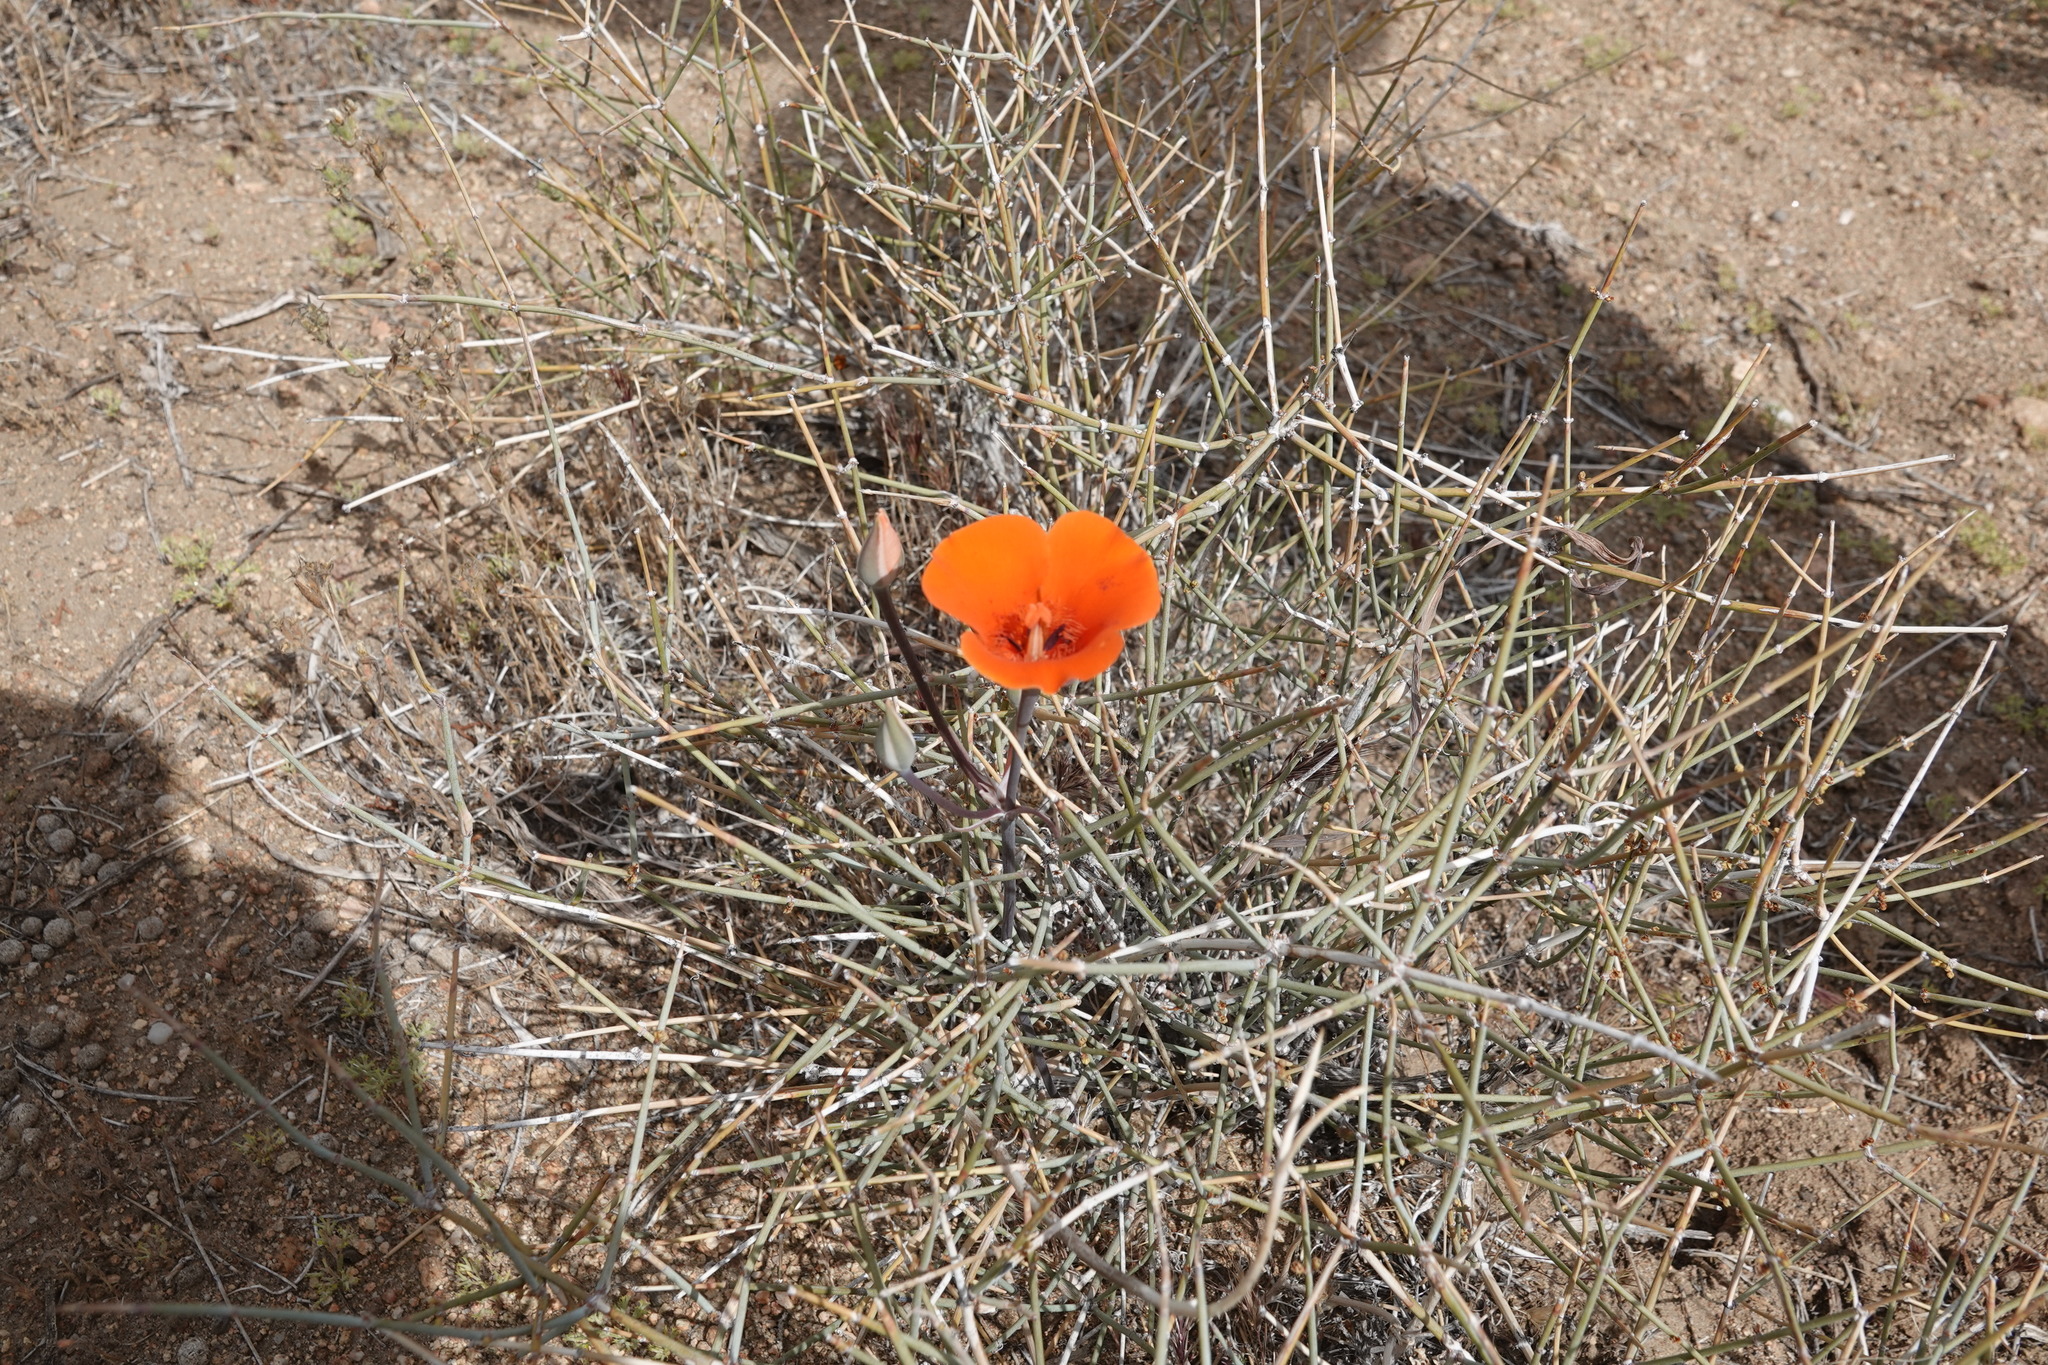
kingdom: Plantae
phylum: Tracheophyta
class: Liliopsida
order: Liliales
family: Liliaceae
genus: Calochortus
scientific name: Calochortus kennedyi
